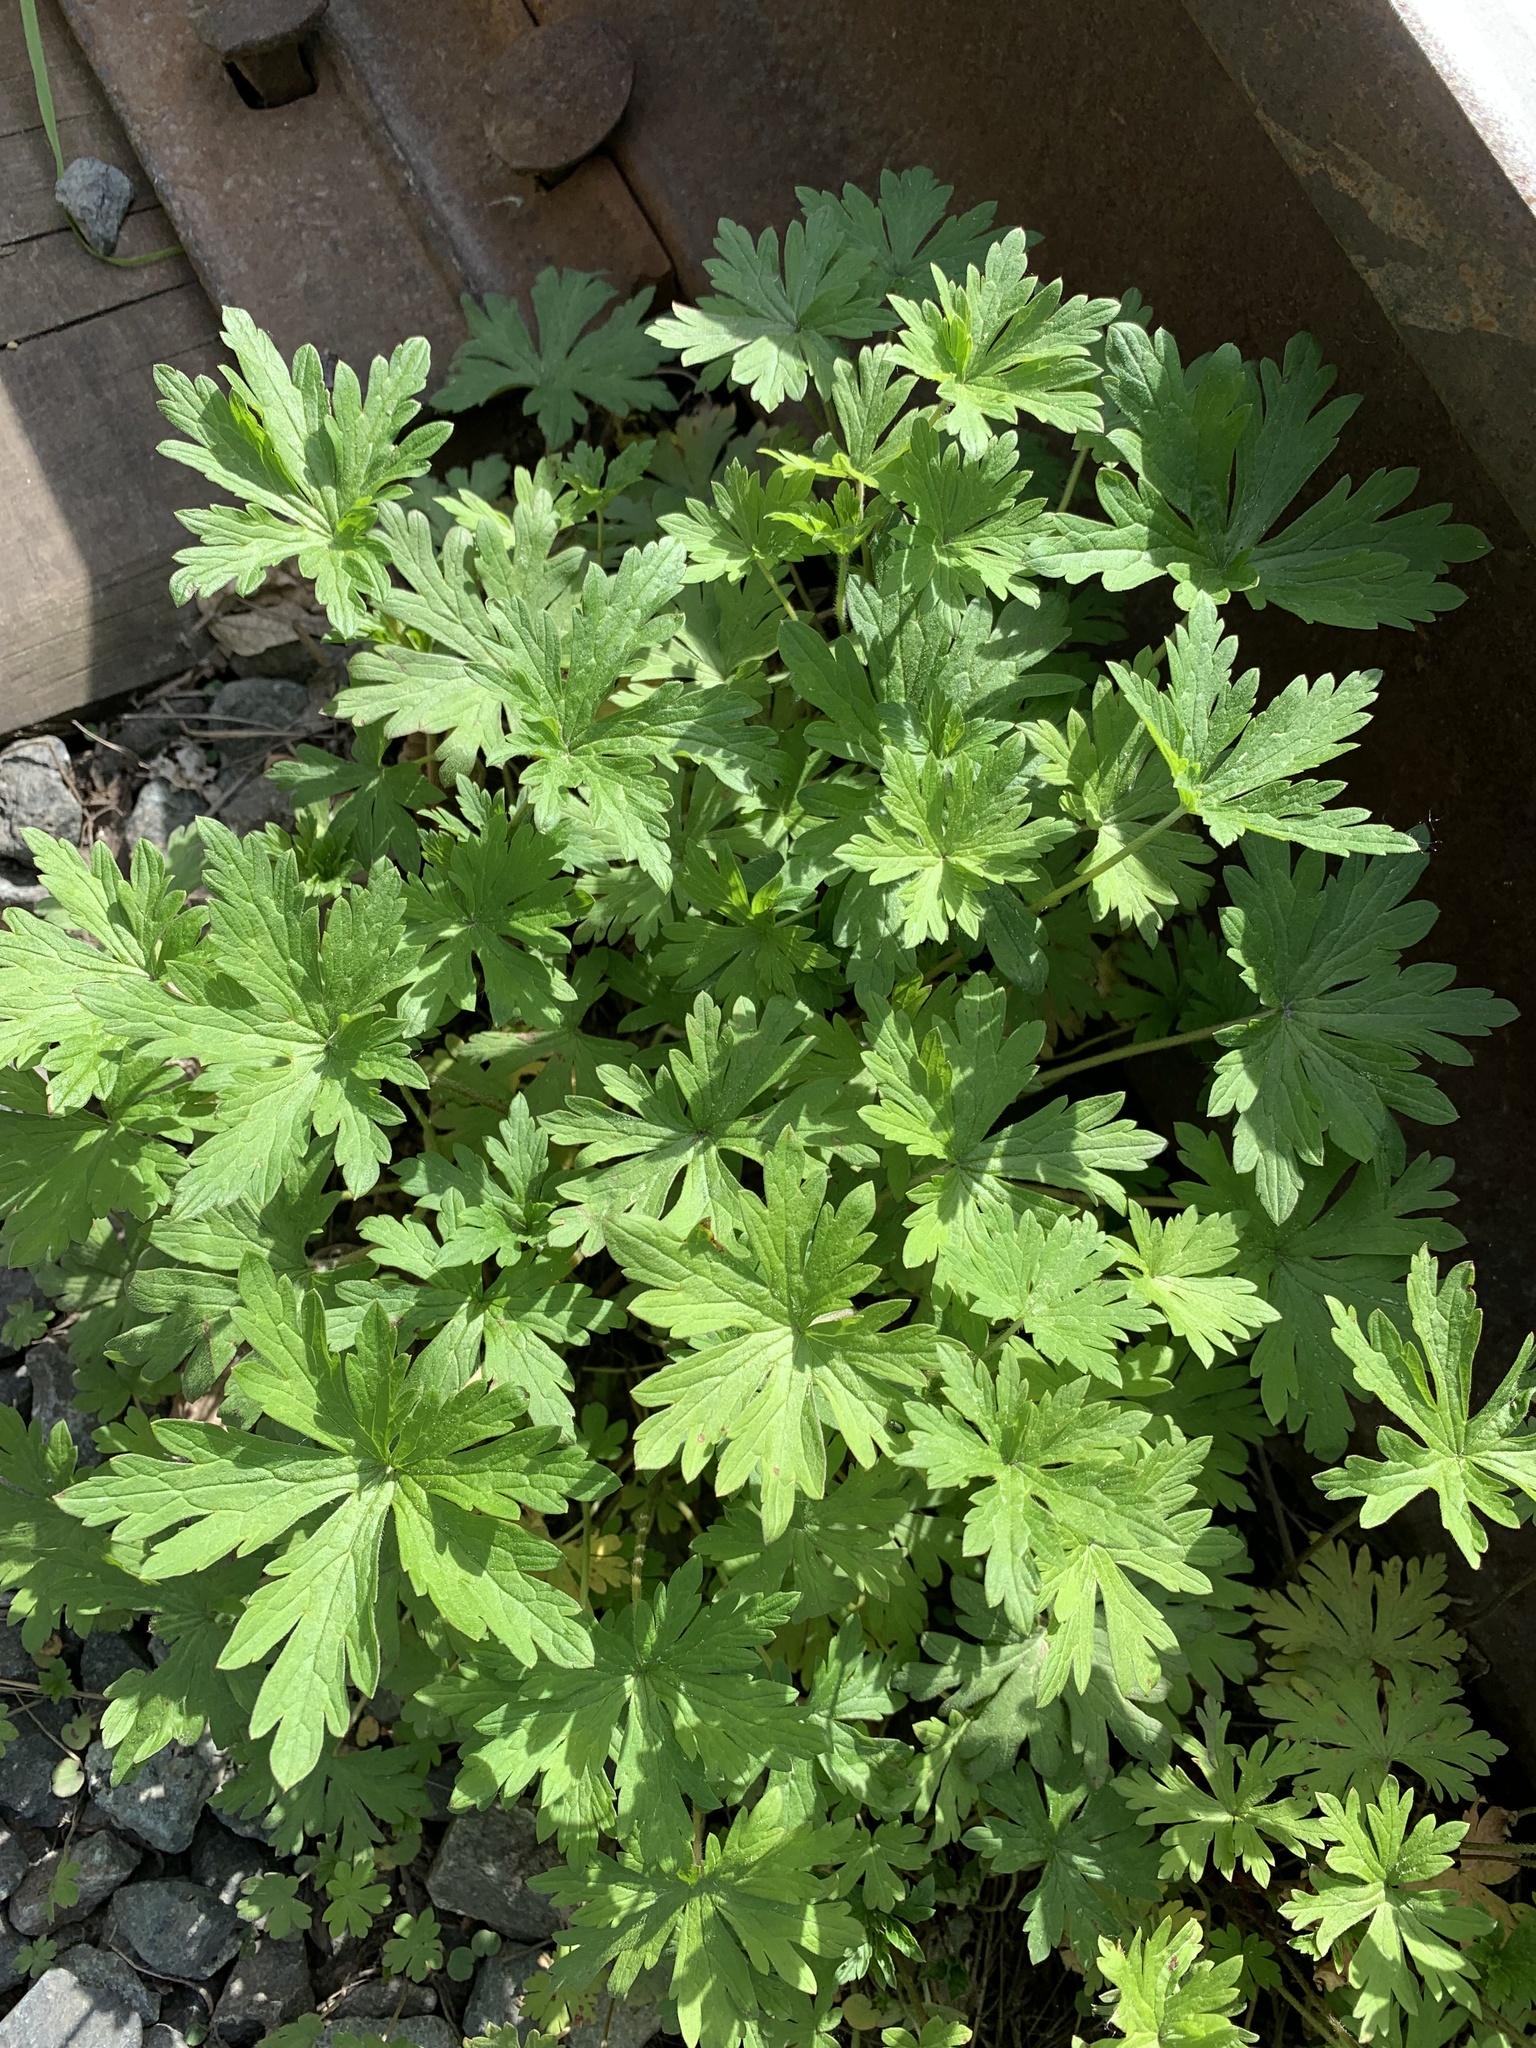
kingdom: Plantae
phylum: Tracheophyta
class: Magnoliopsida
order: Geraniales
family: Geraniaceae
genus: Geranium
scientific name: Geranium sibiricum
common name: Siberian crane's-bill
